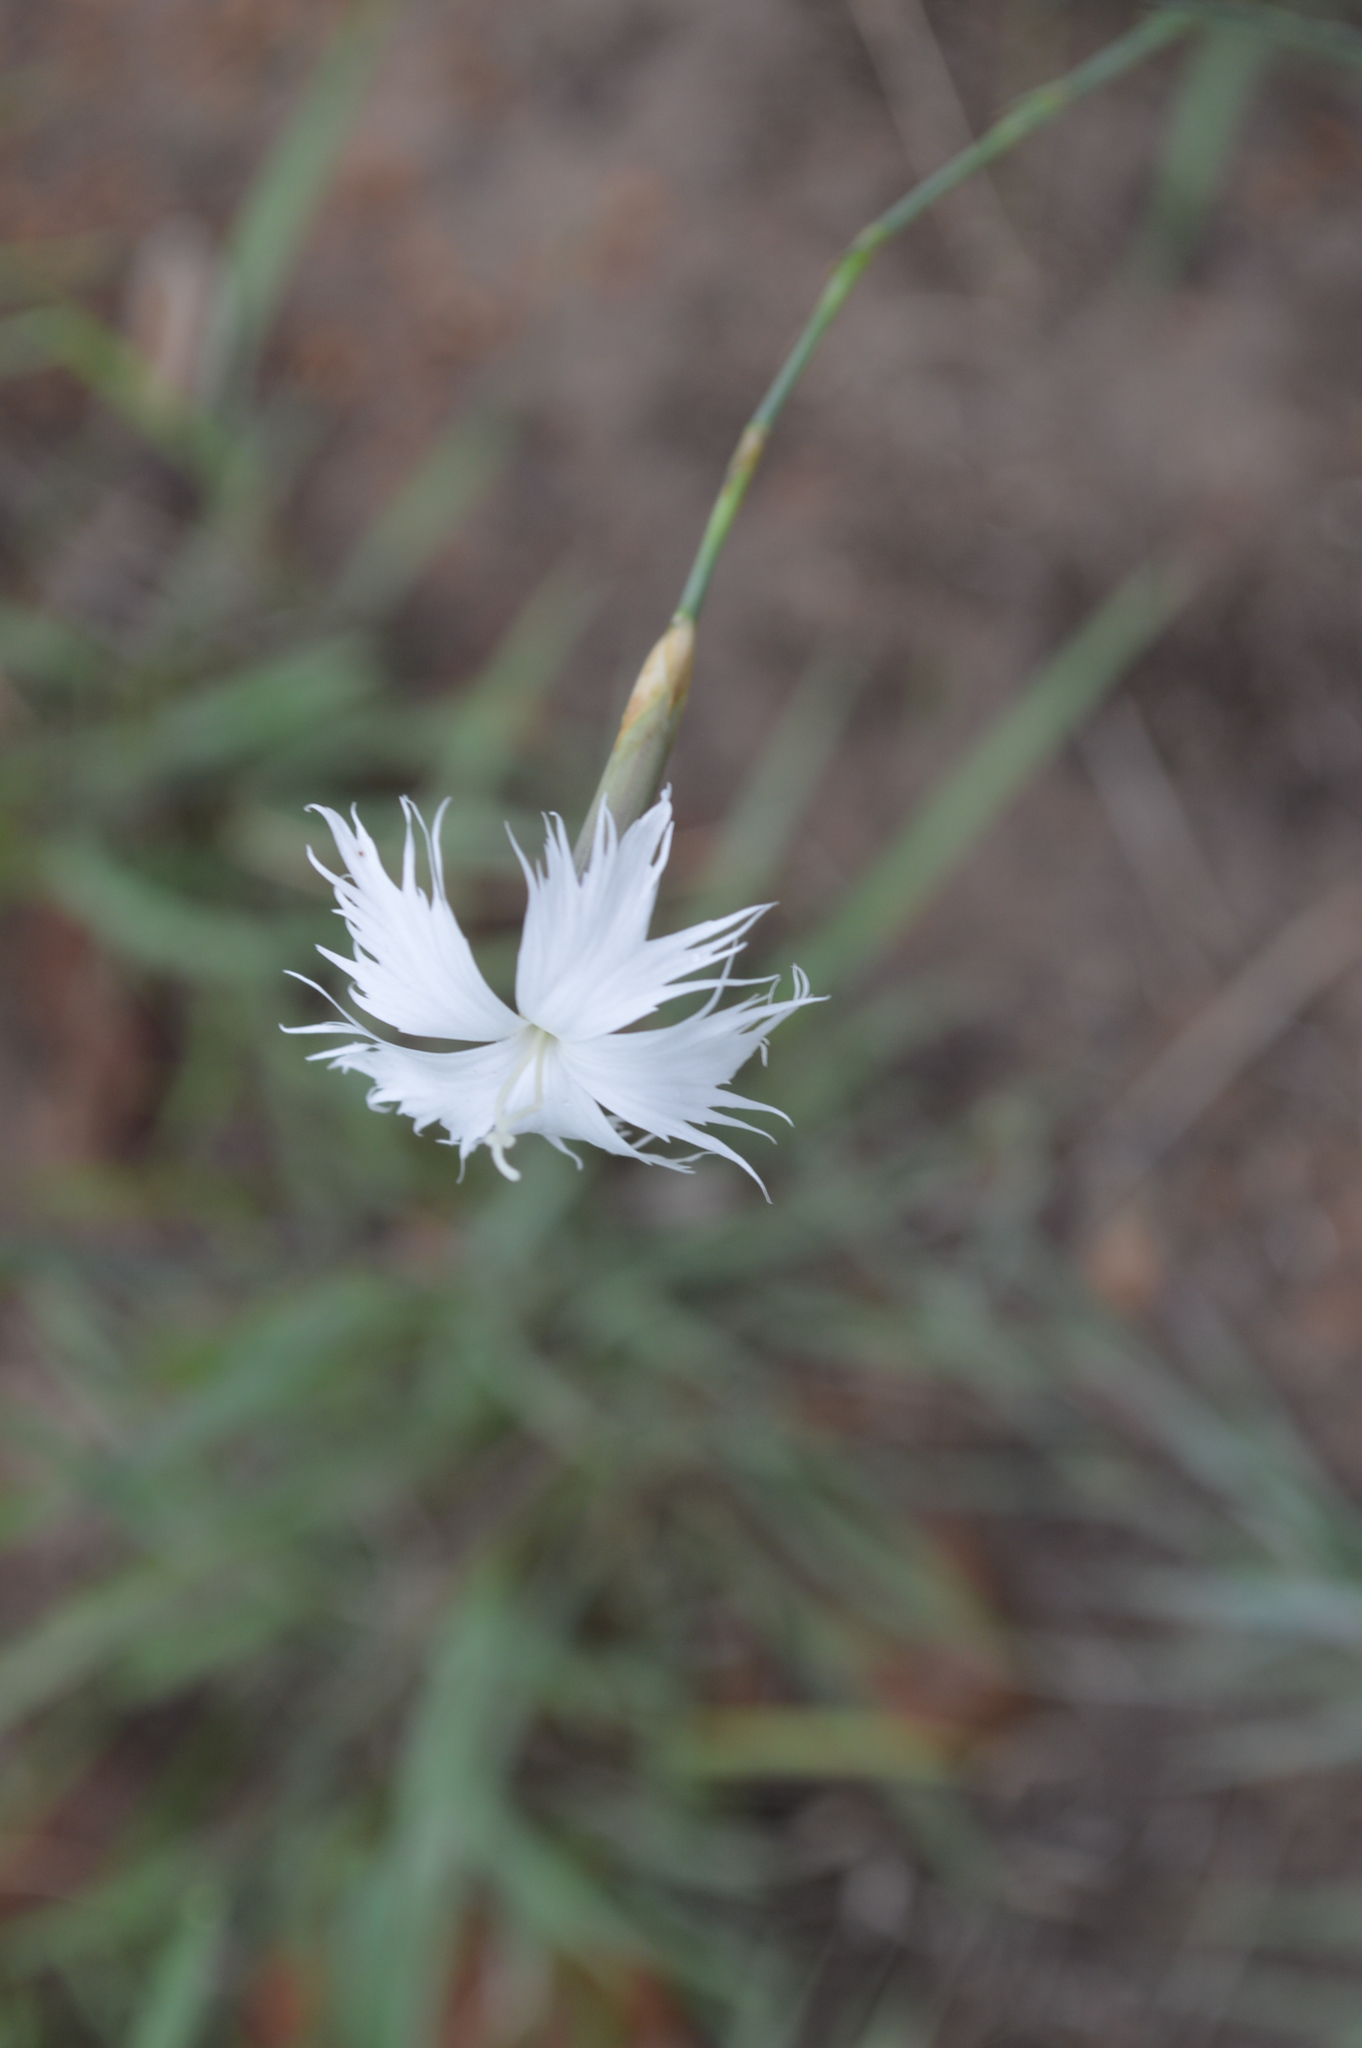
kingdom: Plantae
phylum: Tracheophyta
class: Magnoliopsida
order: Caryophyllales
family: Caryophyllaceae
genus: Dianthus
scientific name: Dianthus mooiensis
